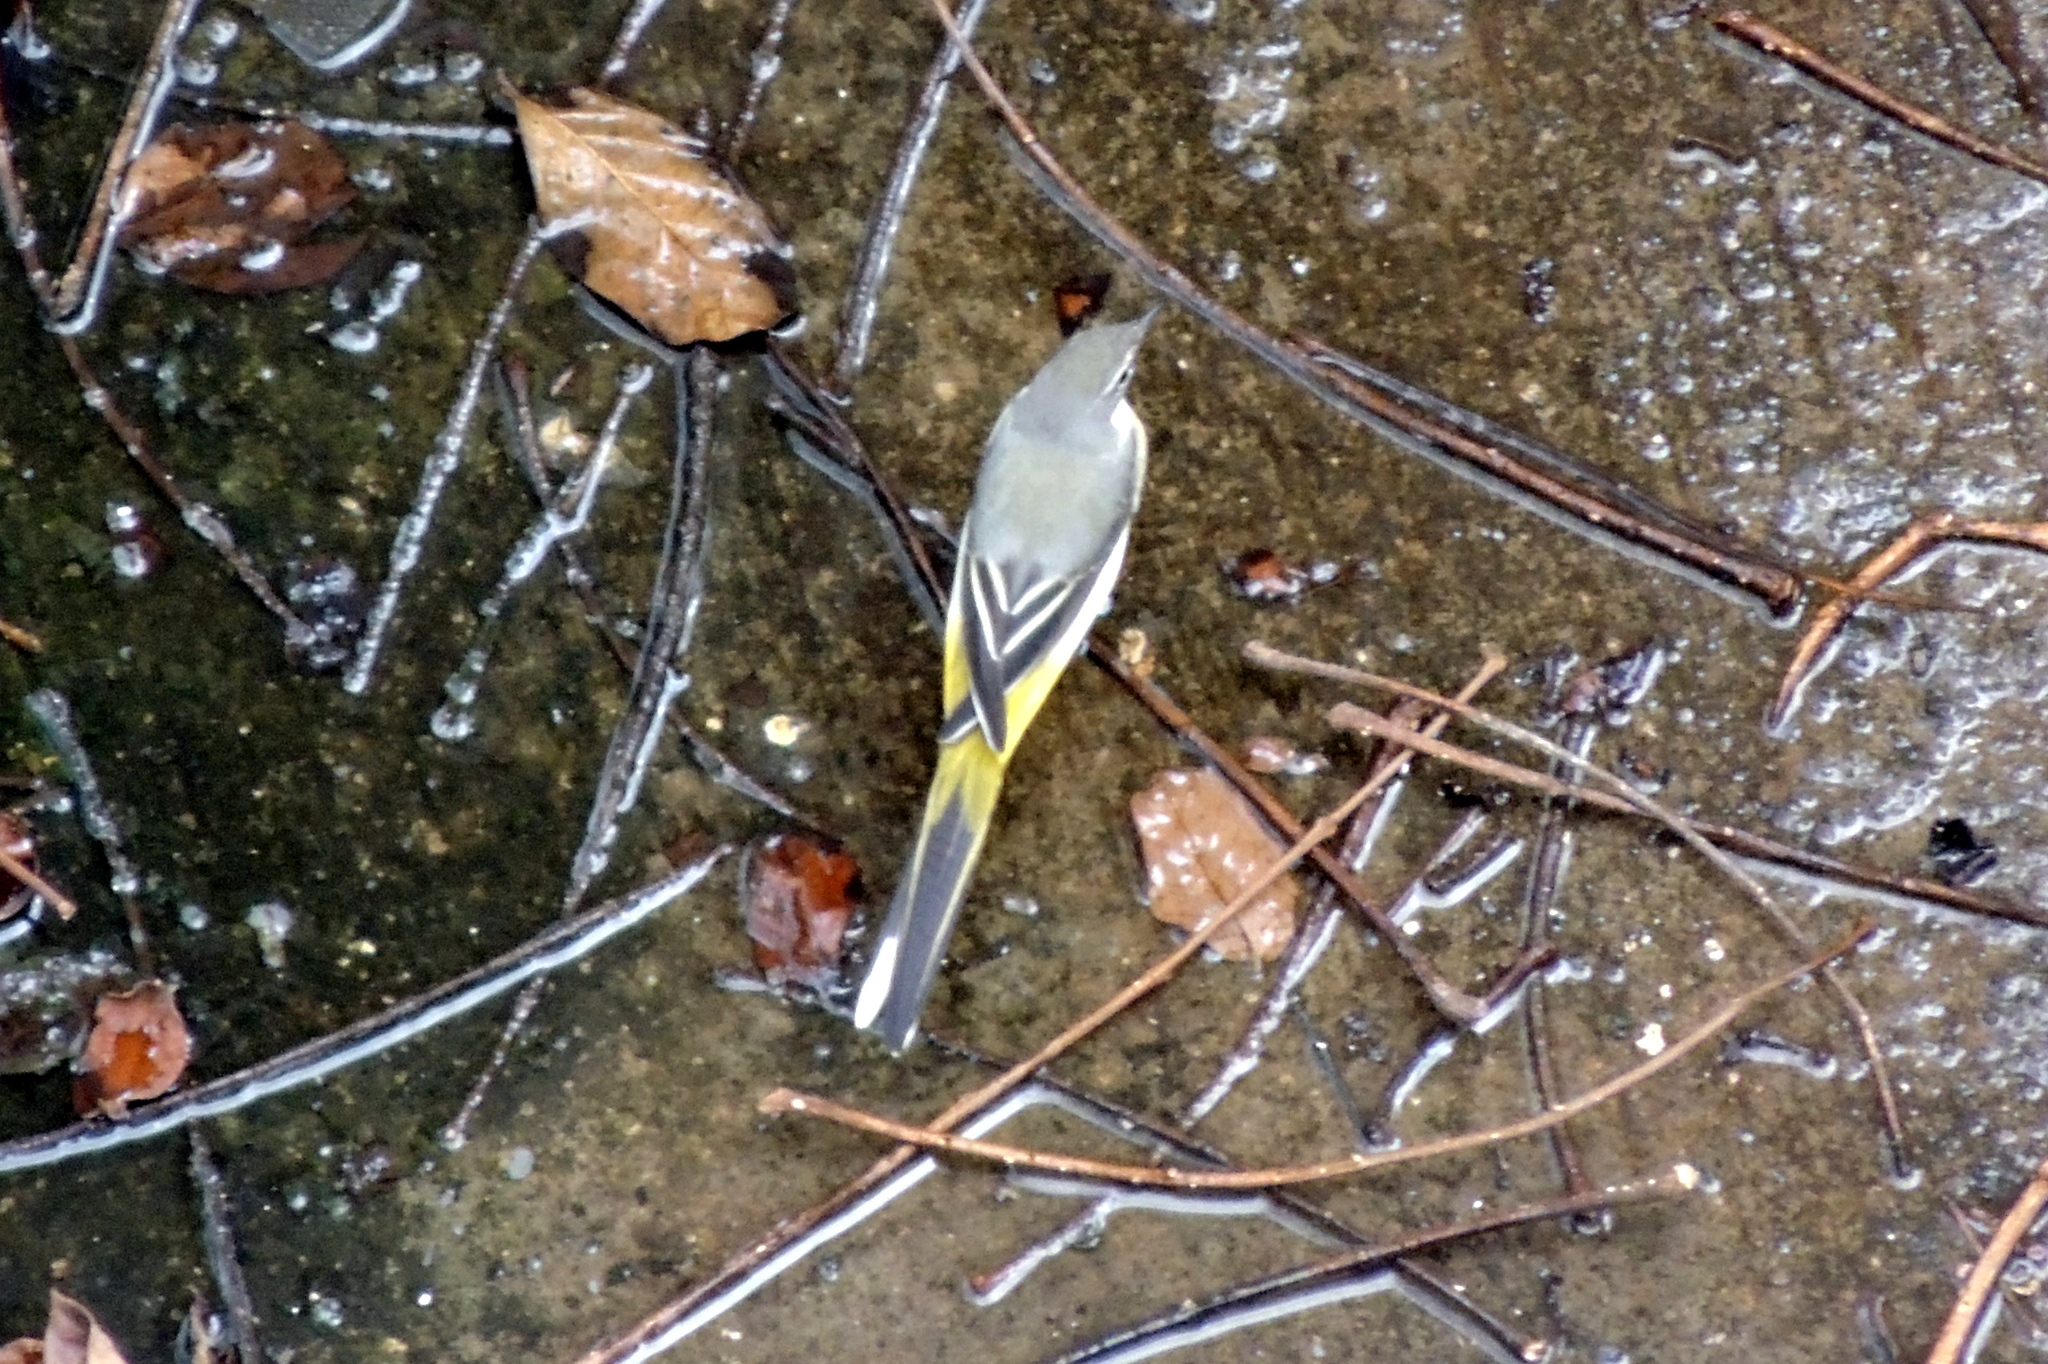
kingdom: Animalia
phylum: Chordata
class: Aves
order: Passeriformes
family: Motacillidae
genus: Motacilla
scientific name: Motacilla cinerea
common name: Grey wagtail
